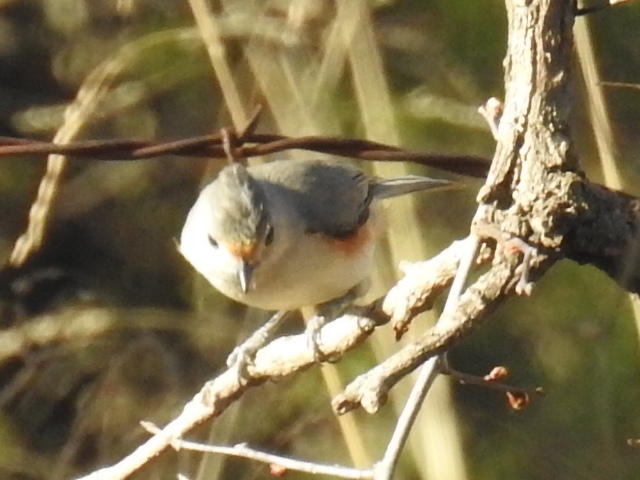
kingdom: Animalia
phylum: Chordata
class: Aves
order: Passeriformes
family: Paridae
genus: Baeolophus
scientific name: Baeolophus
